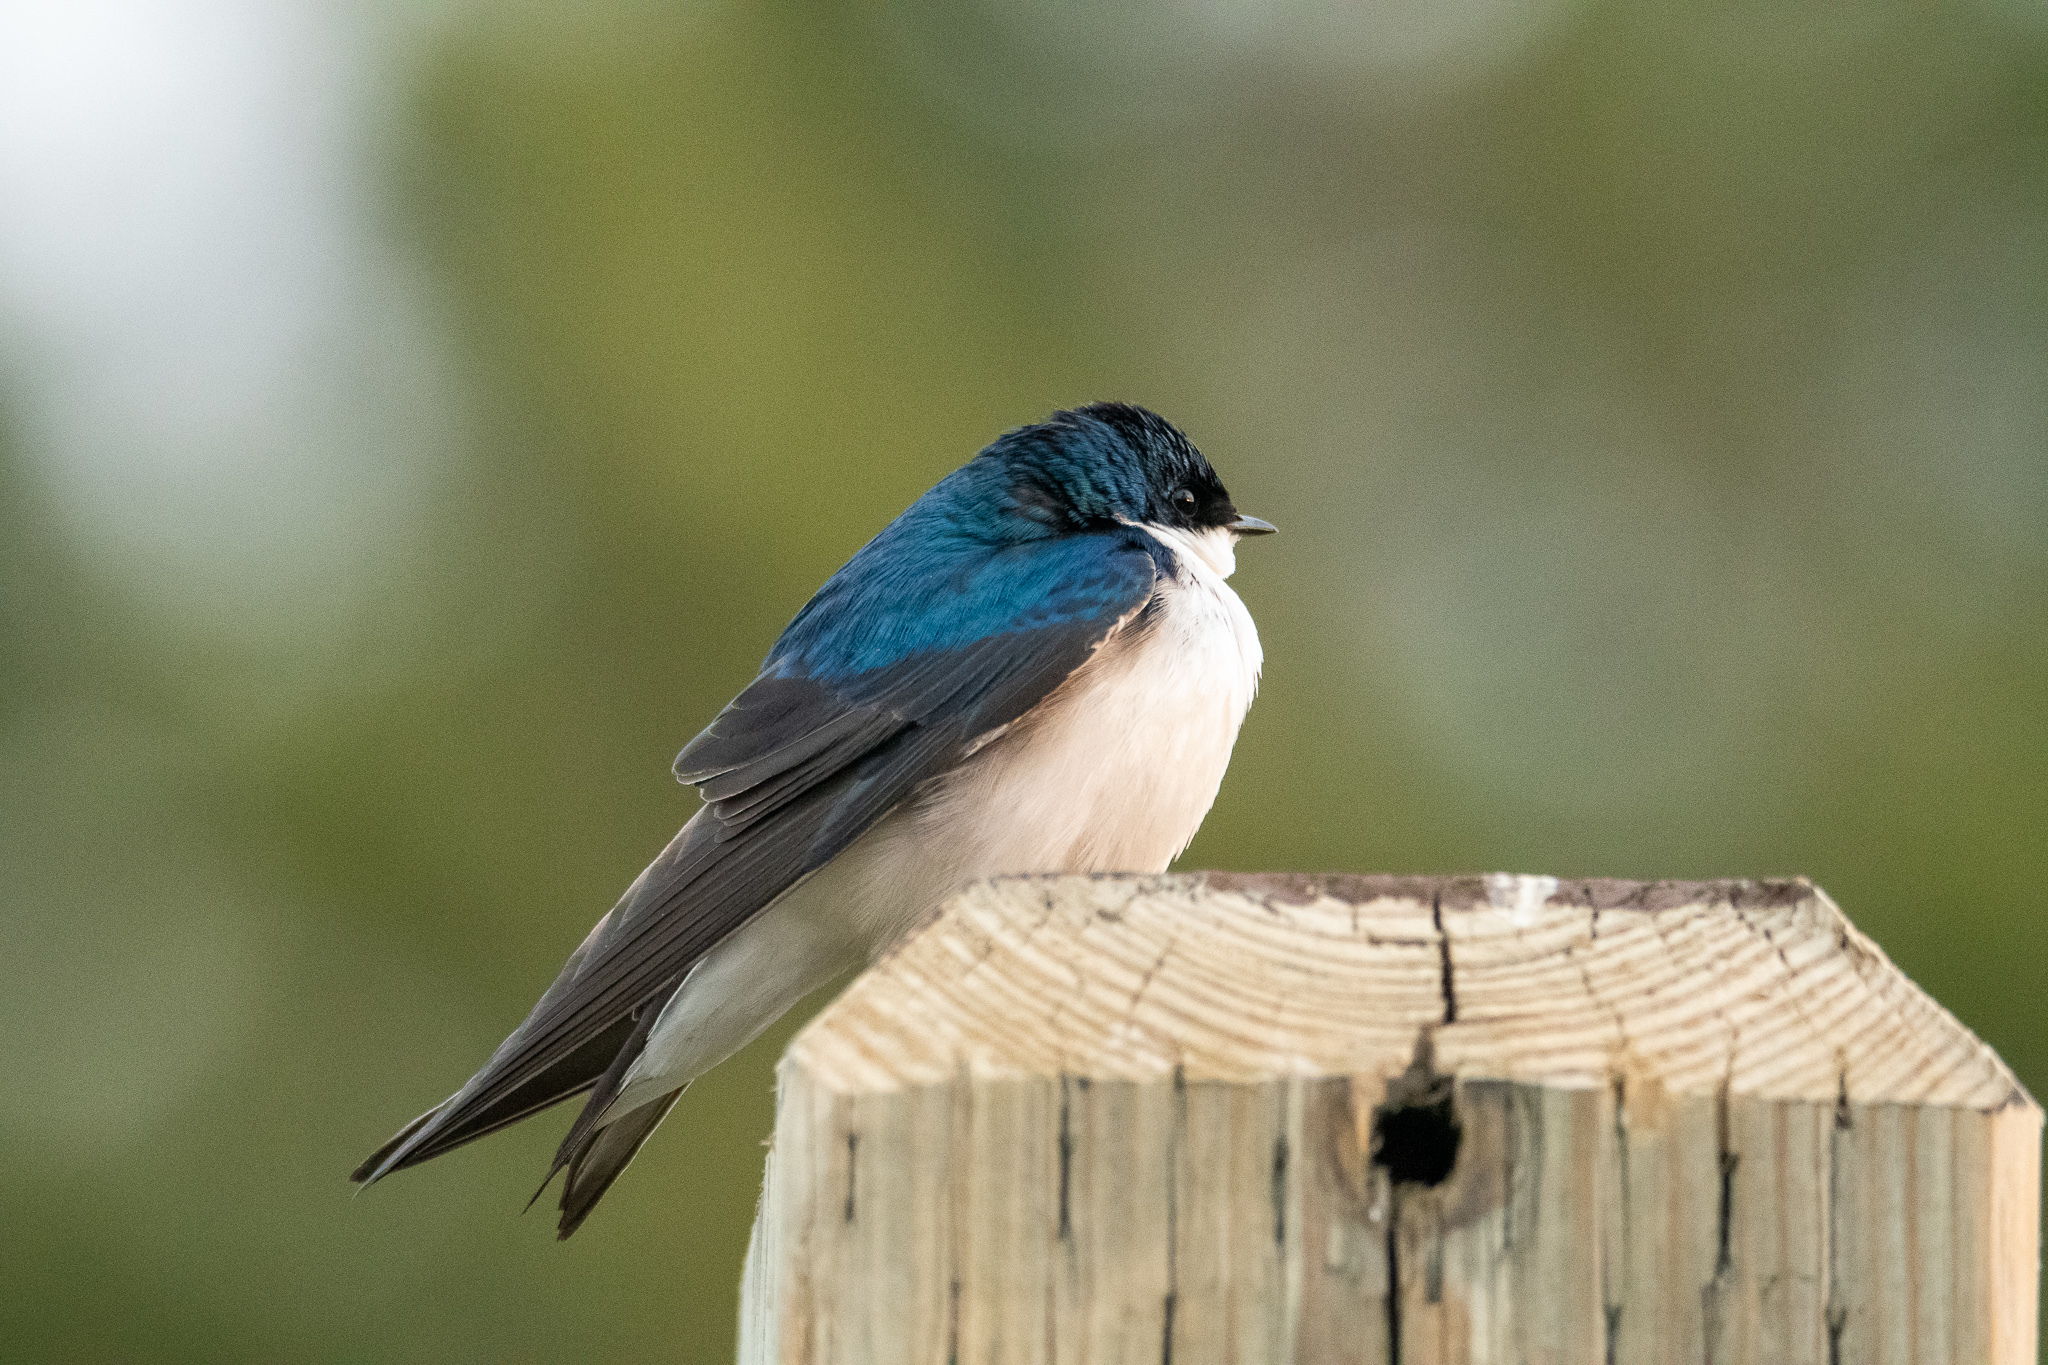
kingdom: Animalia
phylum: Chordata
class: Aves
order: Passeriformes
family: Hirundinidae
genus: Tachycineta
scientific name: Tachycineta bicolor
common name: Tree swallow
